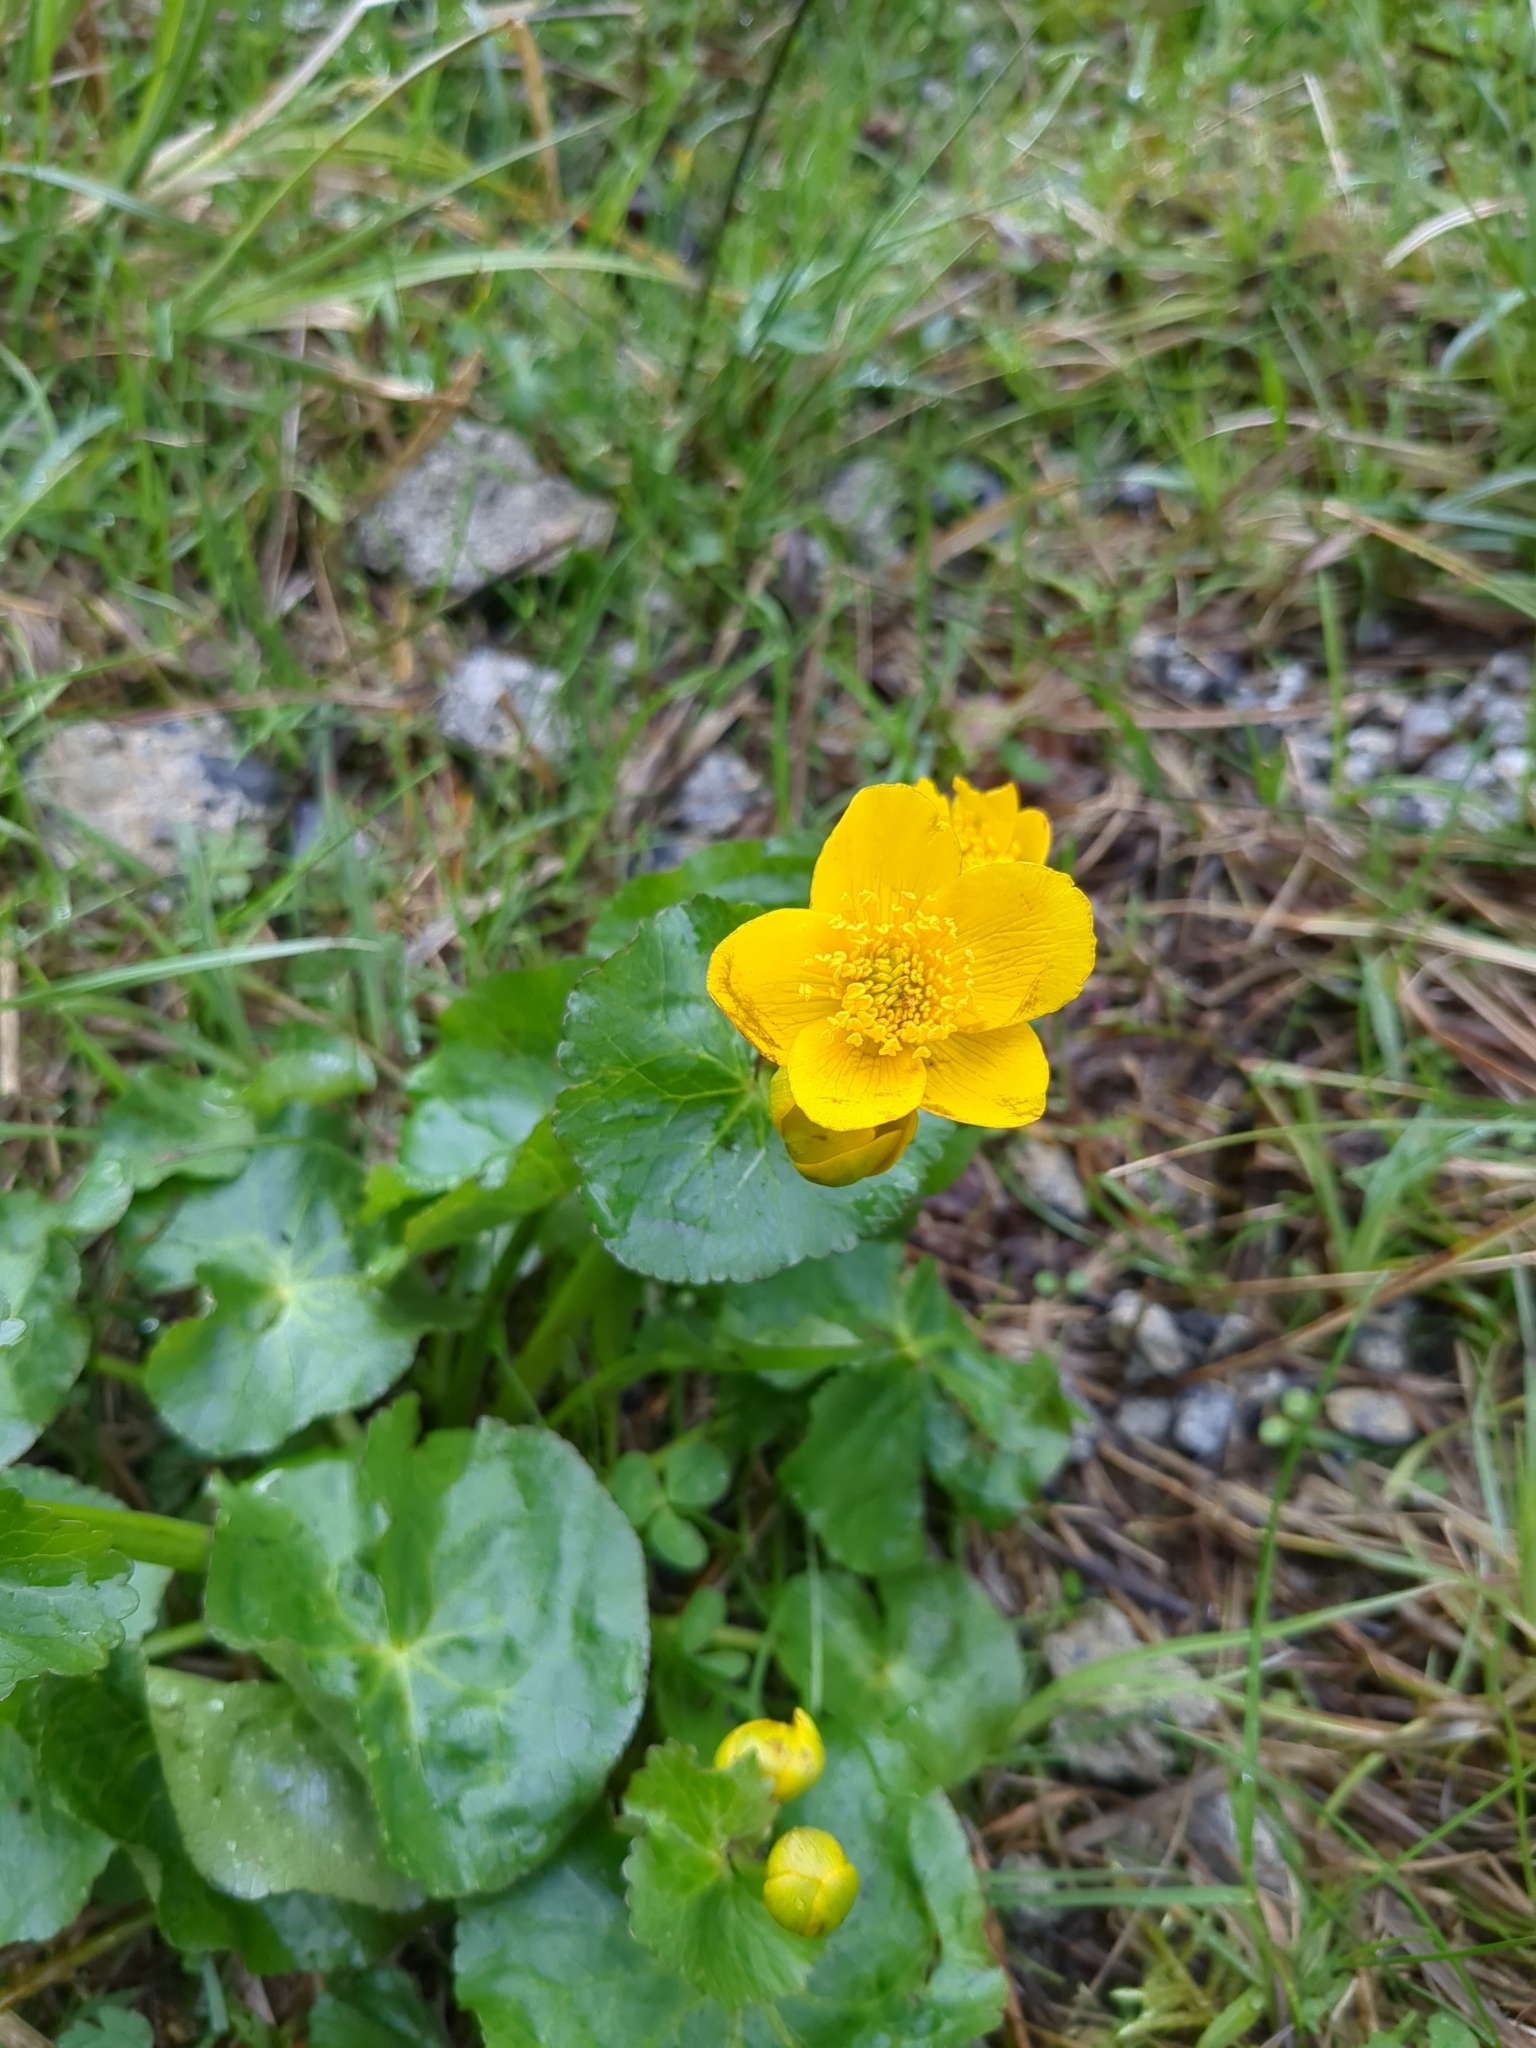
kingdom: Plantae
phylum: Tracheophyta
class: Magnoliopsida
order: Ranunculales
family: Ranunculaceae
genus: Caltha
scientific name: Caltha palustris
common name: Marsh marigold
